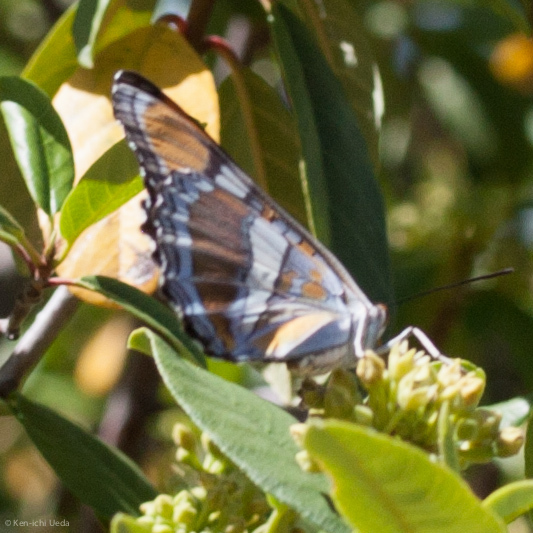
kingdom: Animalia
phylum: Arthropoda
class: Insecta
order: Lepidoptera
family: Nymphalidae
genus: Limenitis
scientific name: Limenitis bredowii
